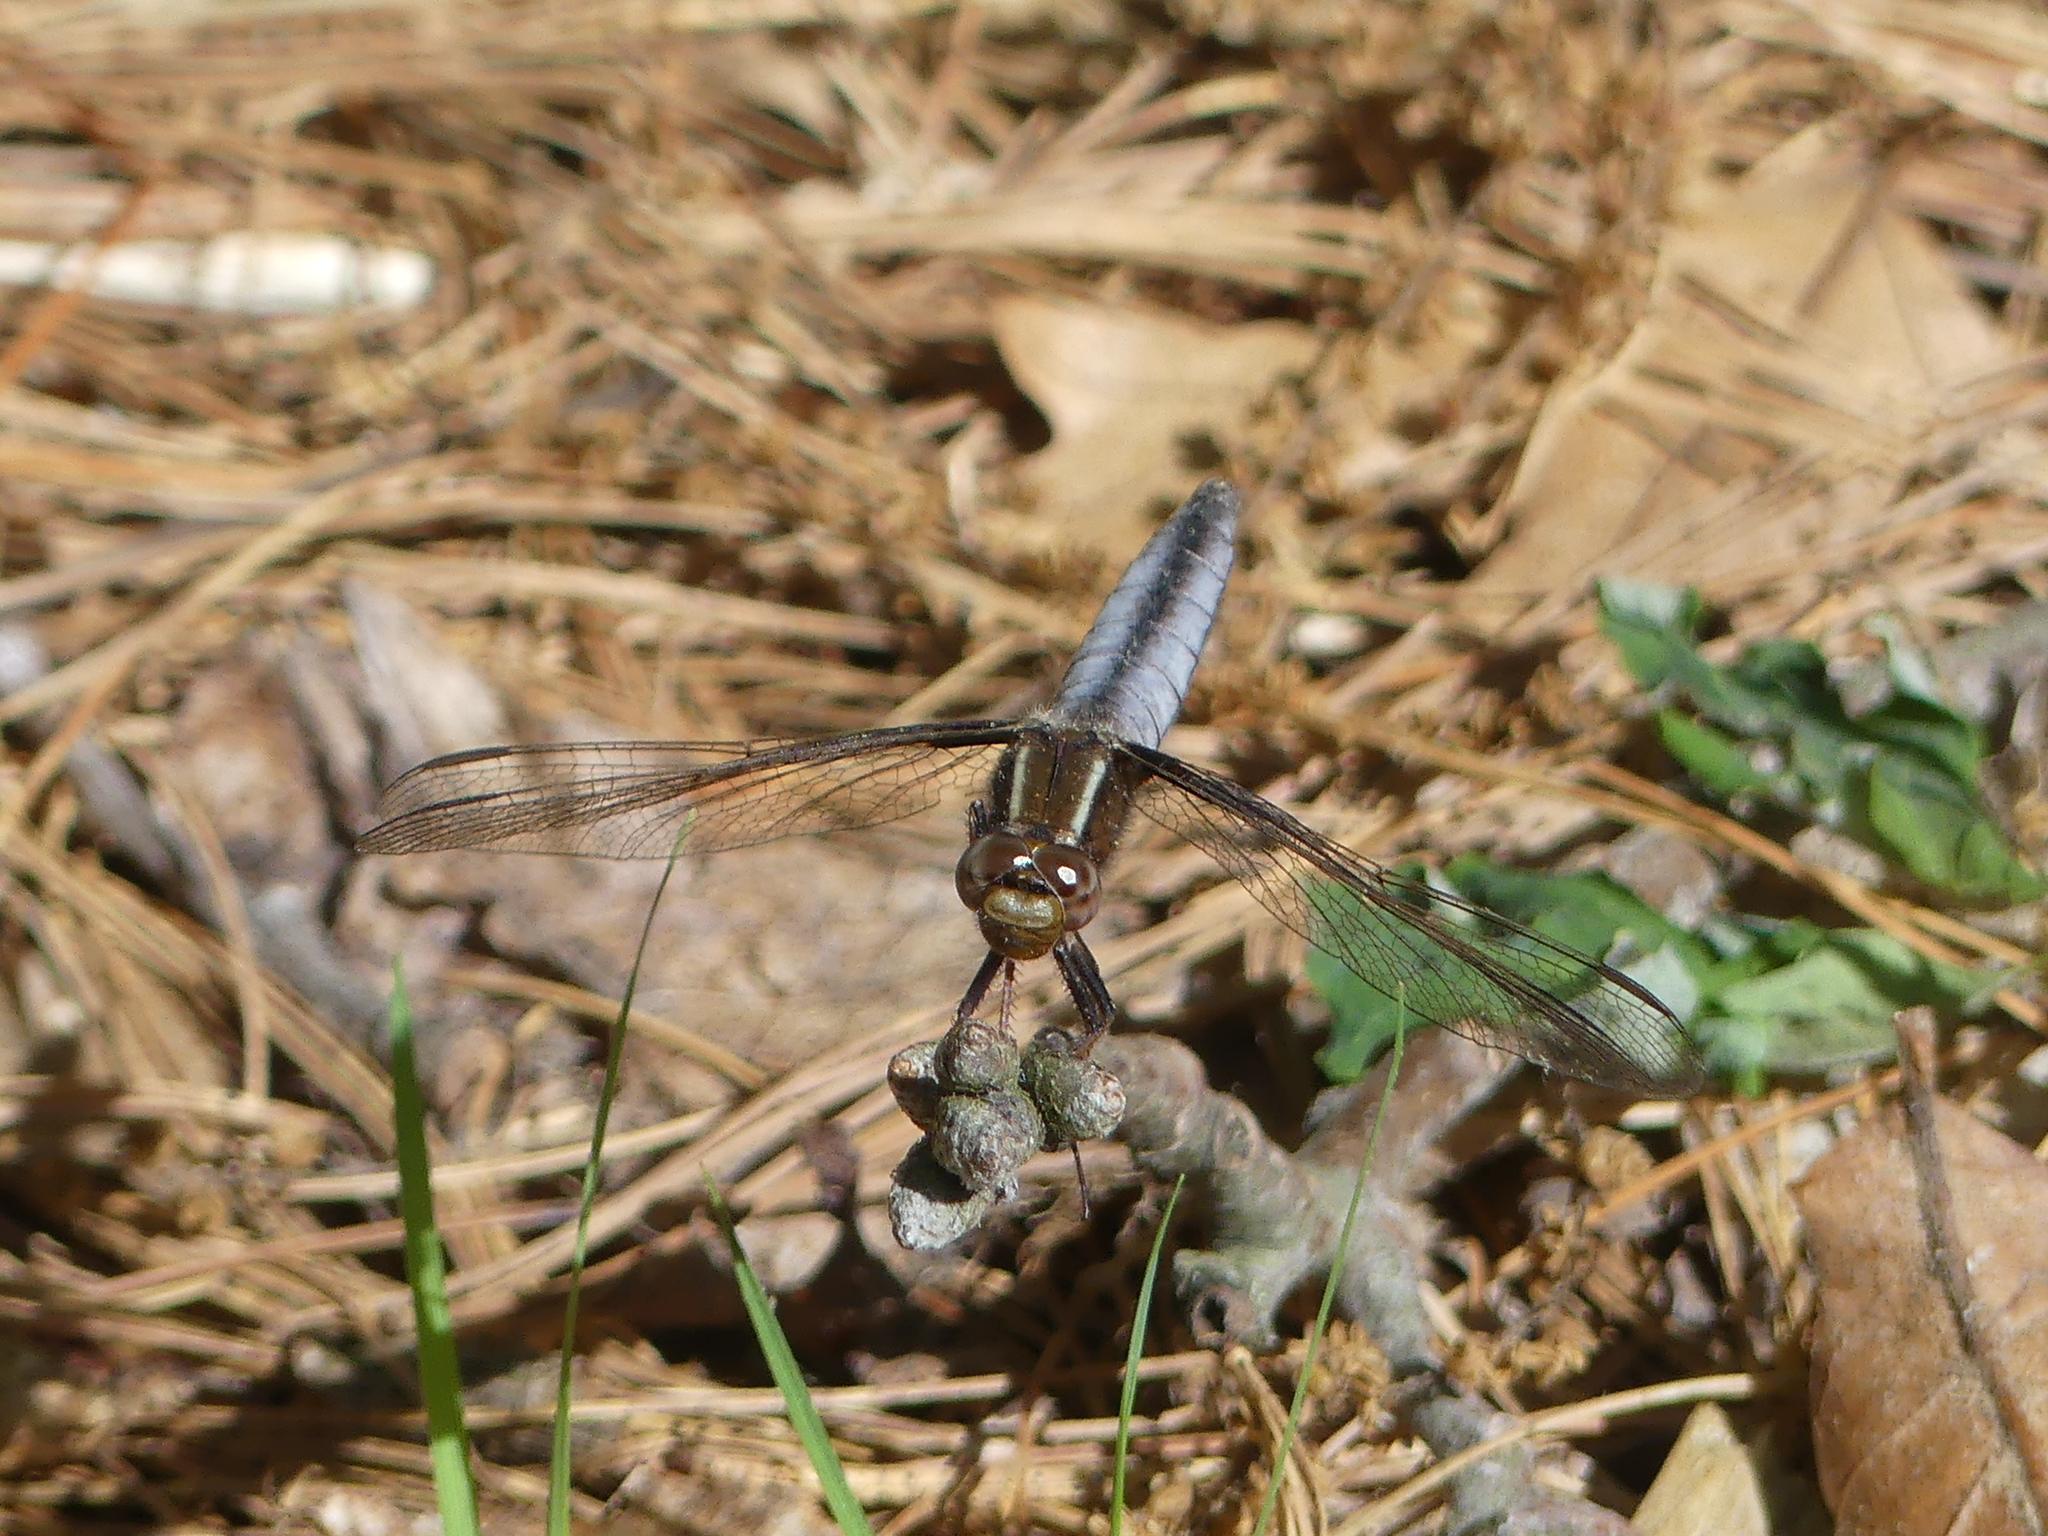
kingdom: Animalia
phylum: Arthropoda
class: Insecta
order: Odonata
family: Libellulidae
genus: Ladona
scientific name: Ladona exusta
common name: Libellule embrasée
